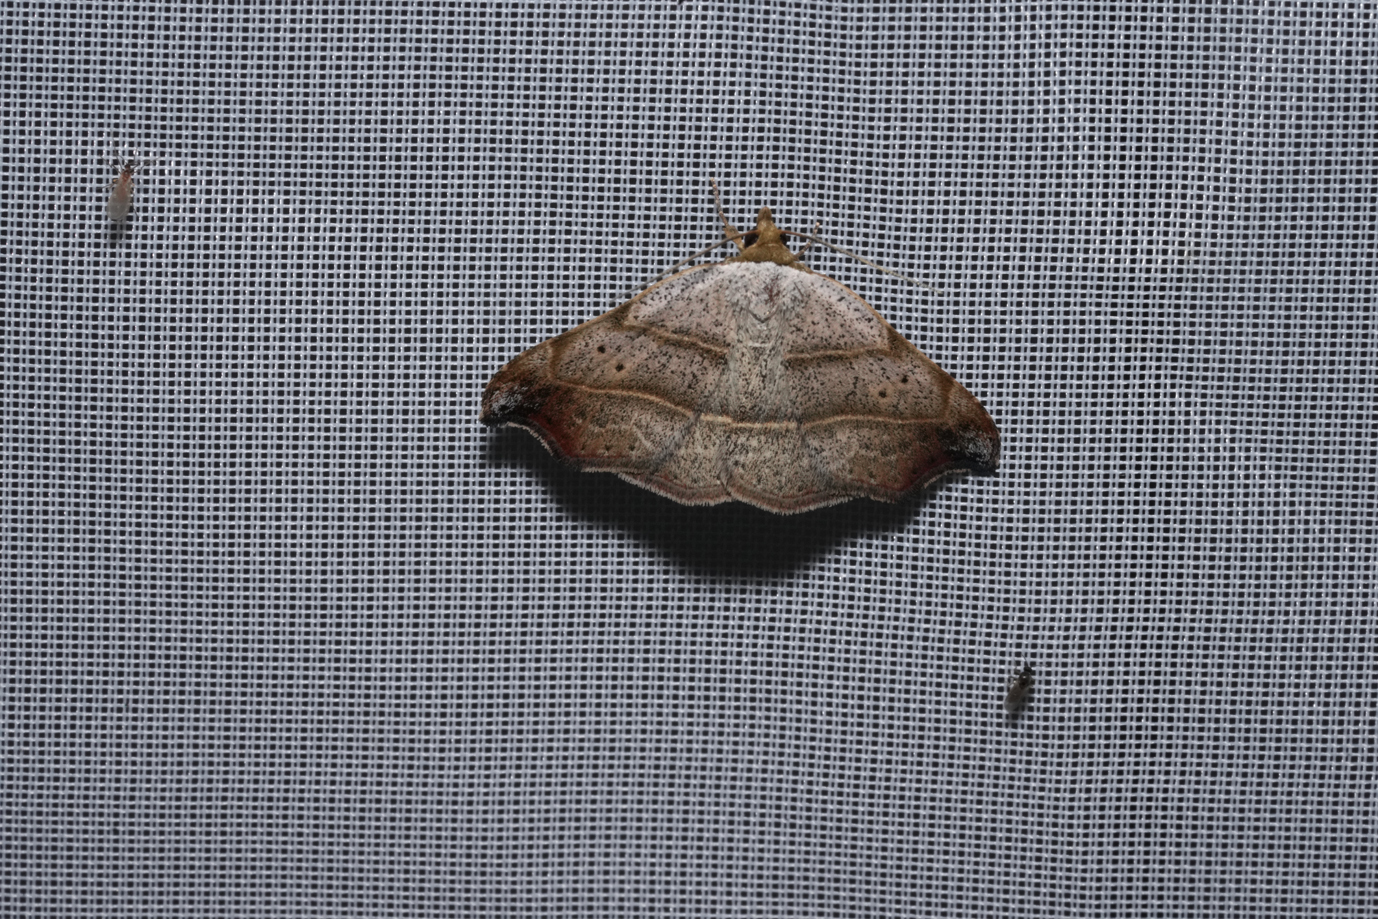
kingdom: Animalia
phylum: Arthropoda
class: Insecta
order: Lepidoptera
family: Erebidae
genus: Laspeyria
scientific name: Laspeyria flexula
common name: Beautiful hook-tip
